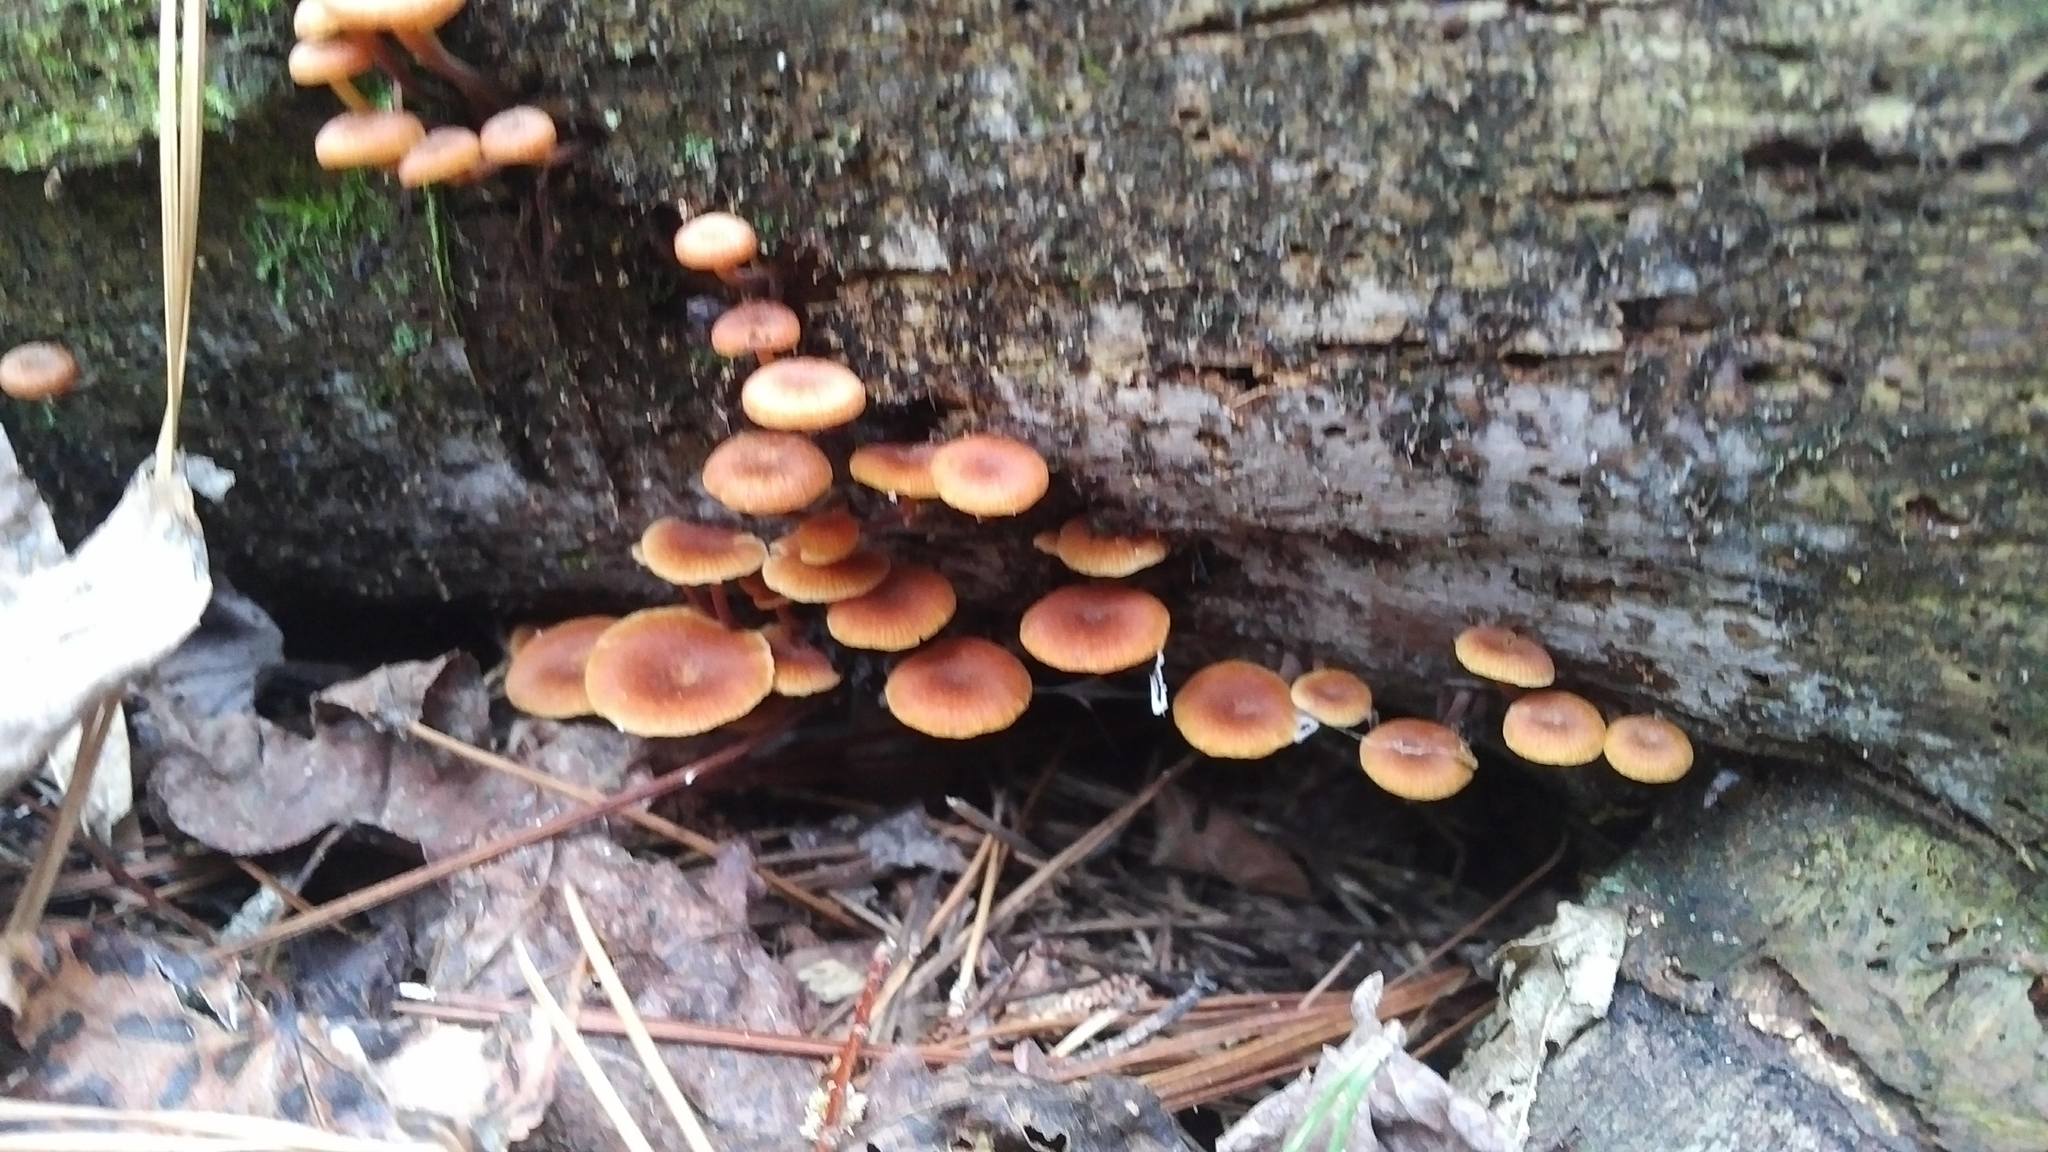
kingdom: Fungi
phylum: Basidiomycota
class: Agaricomycetes
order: Agaricales
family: Mycenaceae
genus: Xeromphalina
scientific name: Xeromphalina kauffmanii
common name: Cross-veined troop mushroom
